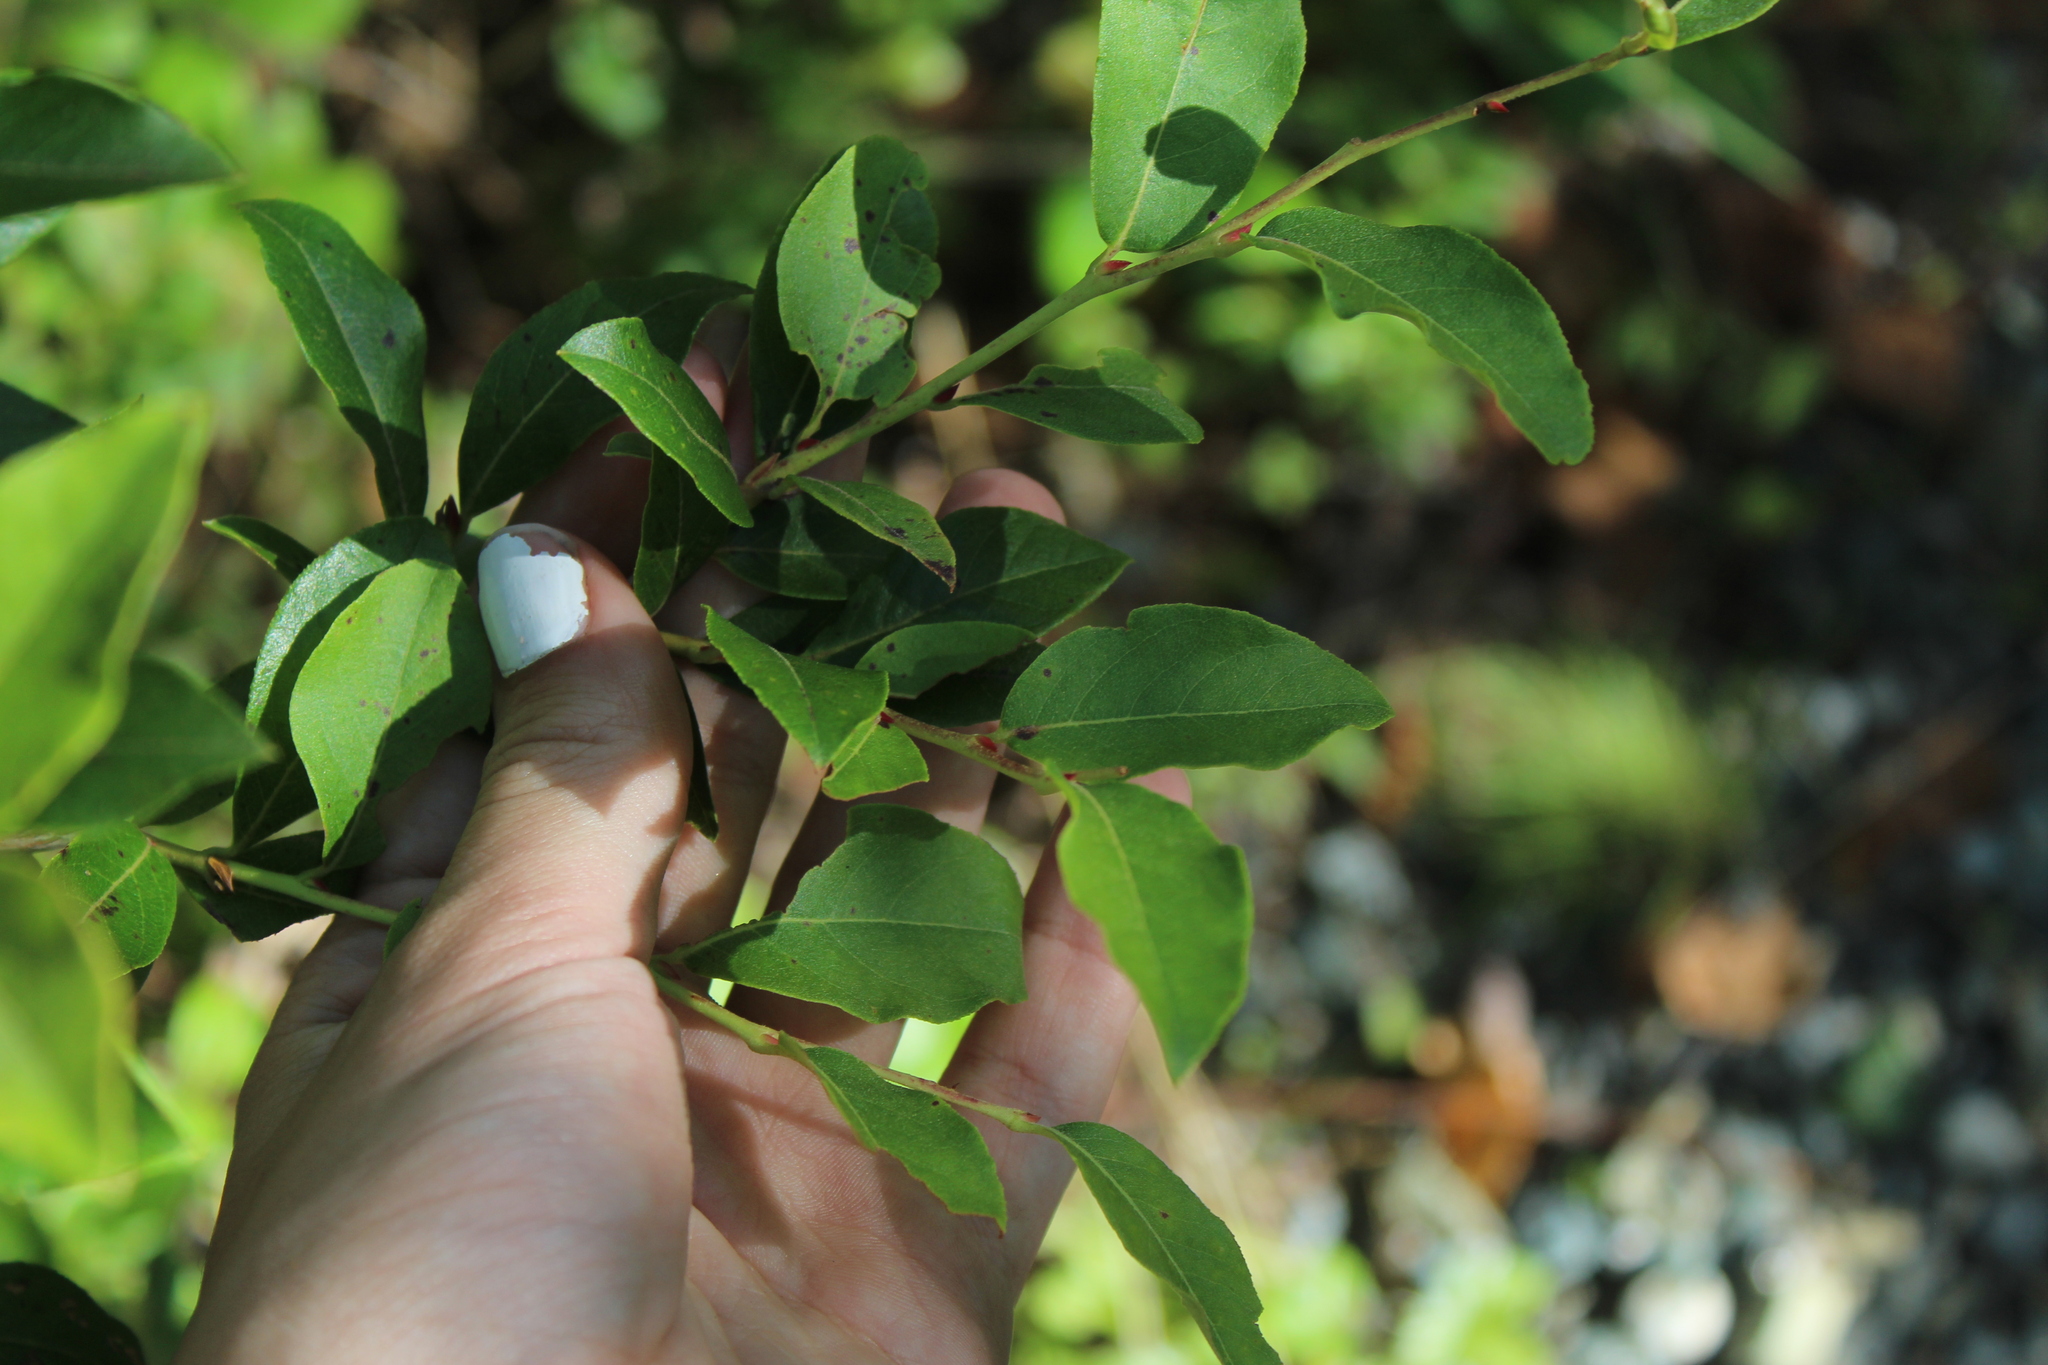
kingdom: Plantae
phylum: Tracheophyta
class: Magnoliopsida
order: Ericales
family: Ericaceae
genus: Lyonia
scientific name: Lyonia ligustrina
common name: Maleberry
